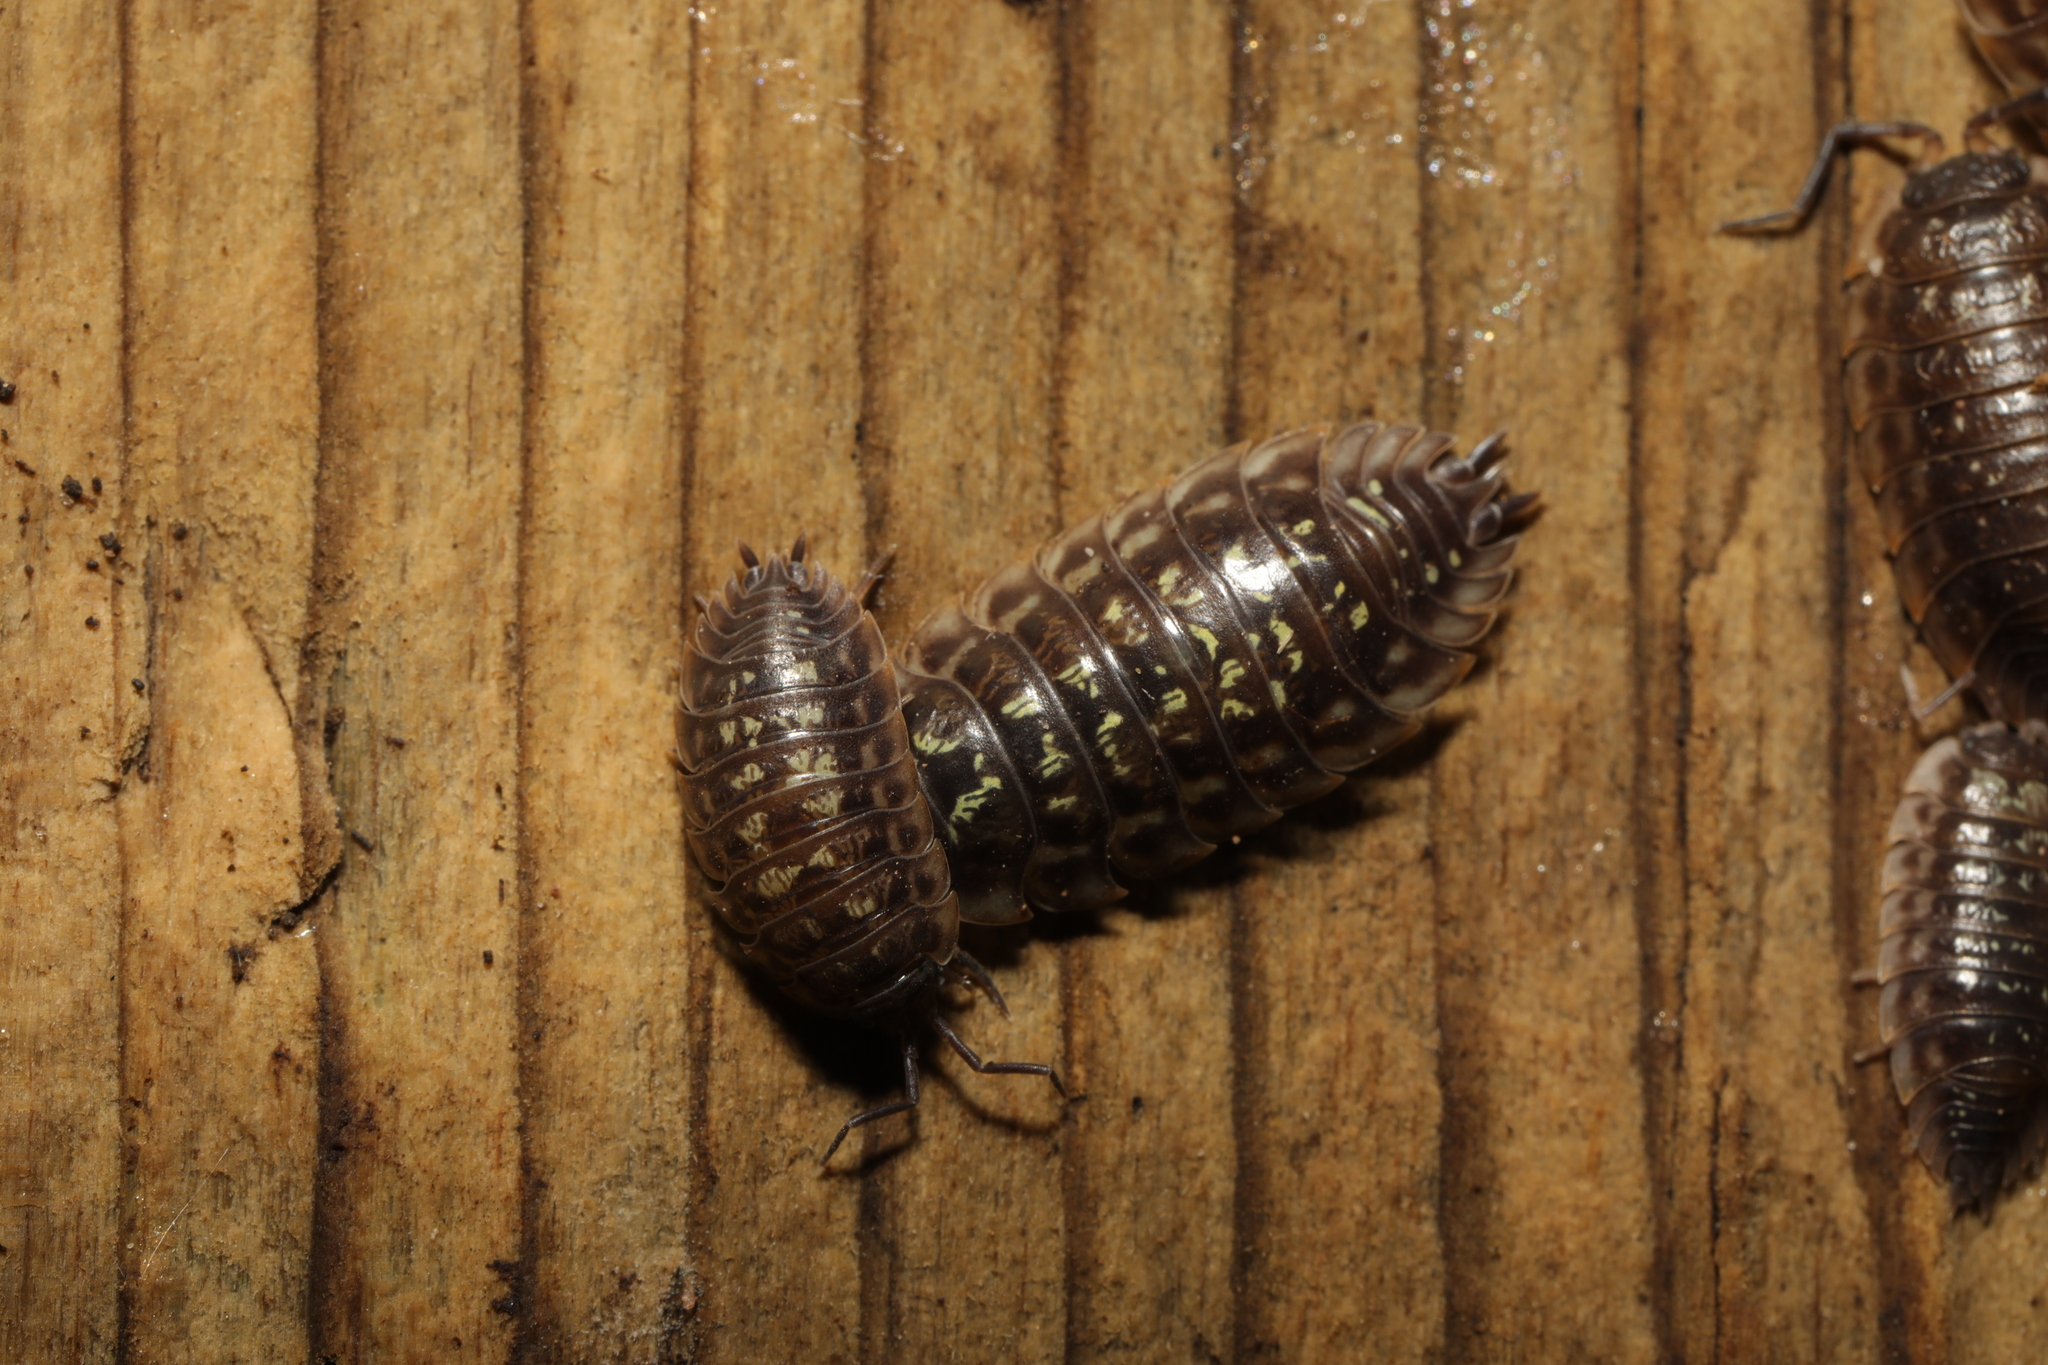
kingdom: Animalia
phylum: Arthropoda
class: Malacostraca
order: Isopoda
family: Oniscidae
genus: Oniscus
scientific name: Oniscus asellus
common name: Common shiny woodlouse
